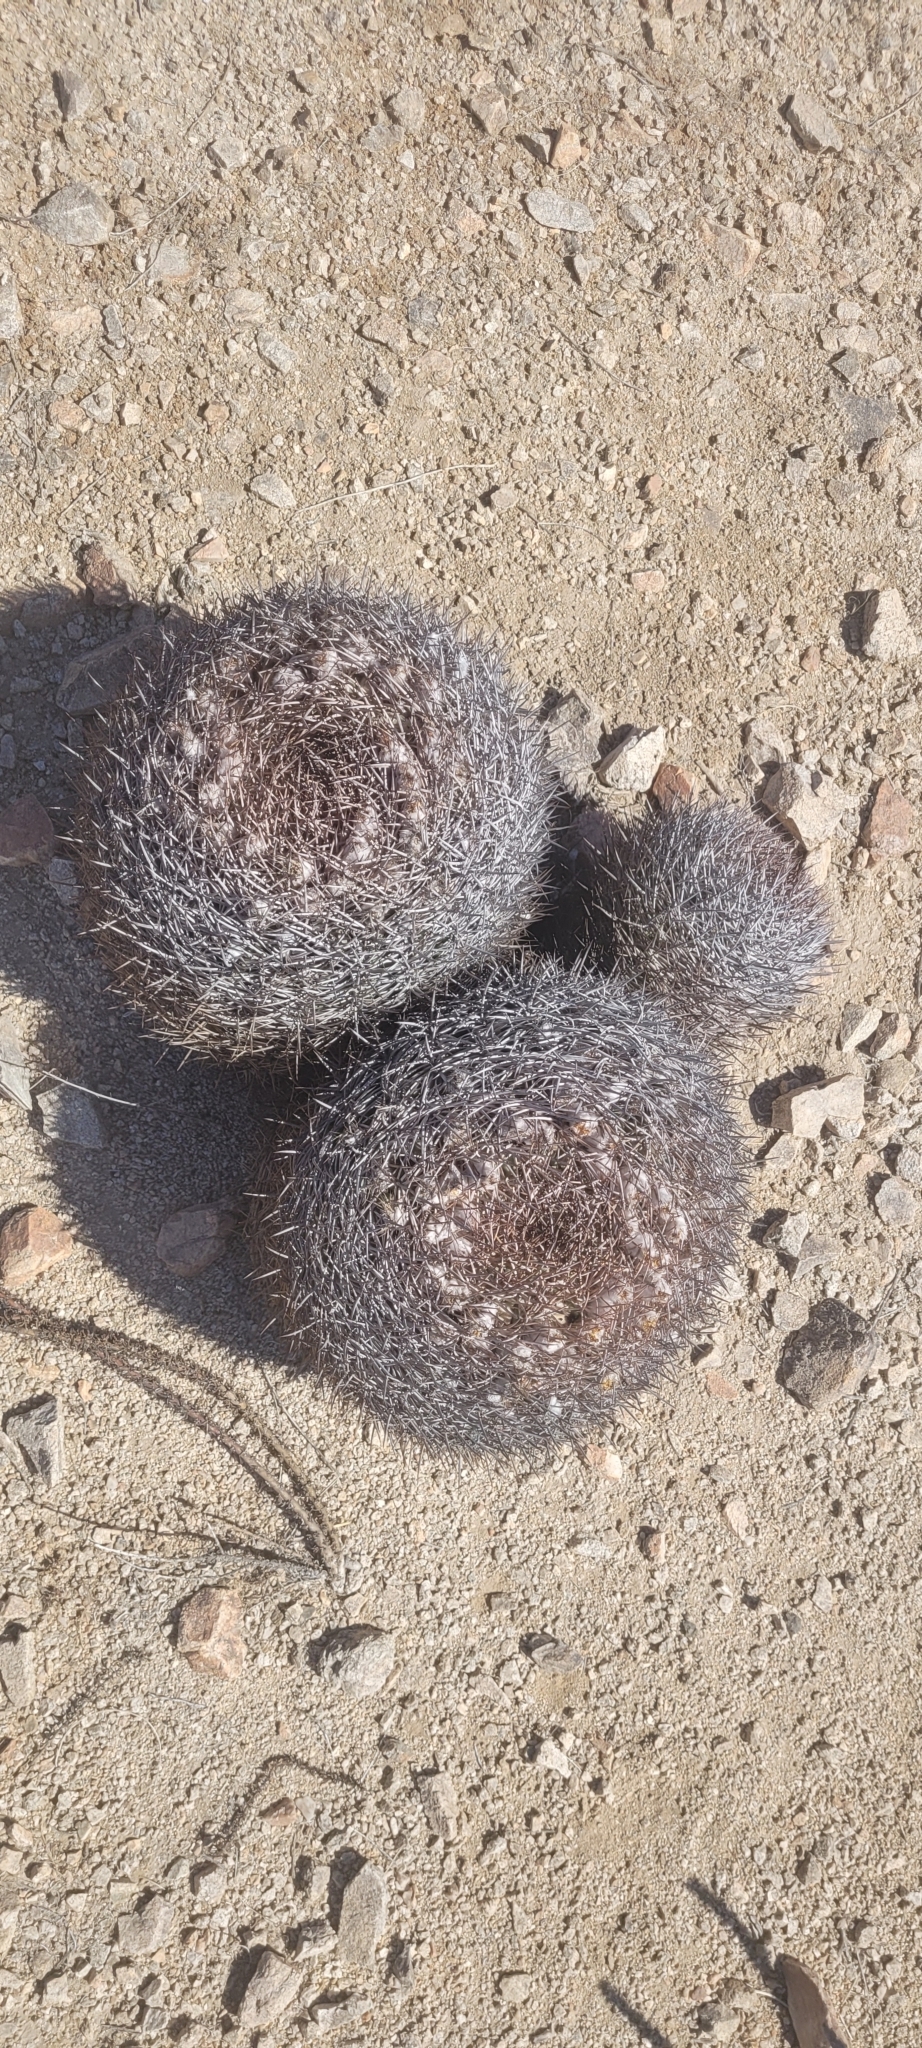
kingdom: Plantae
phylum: Tracheophyta
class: Magnoliopsida
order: Caryophyllales
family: Cactaceae
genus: Eriosyce
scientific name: Eriosyce aurata
